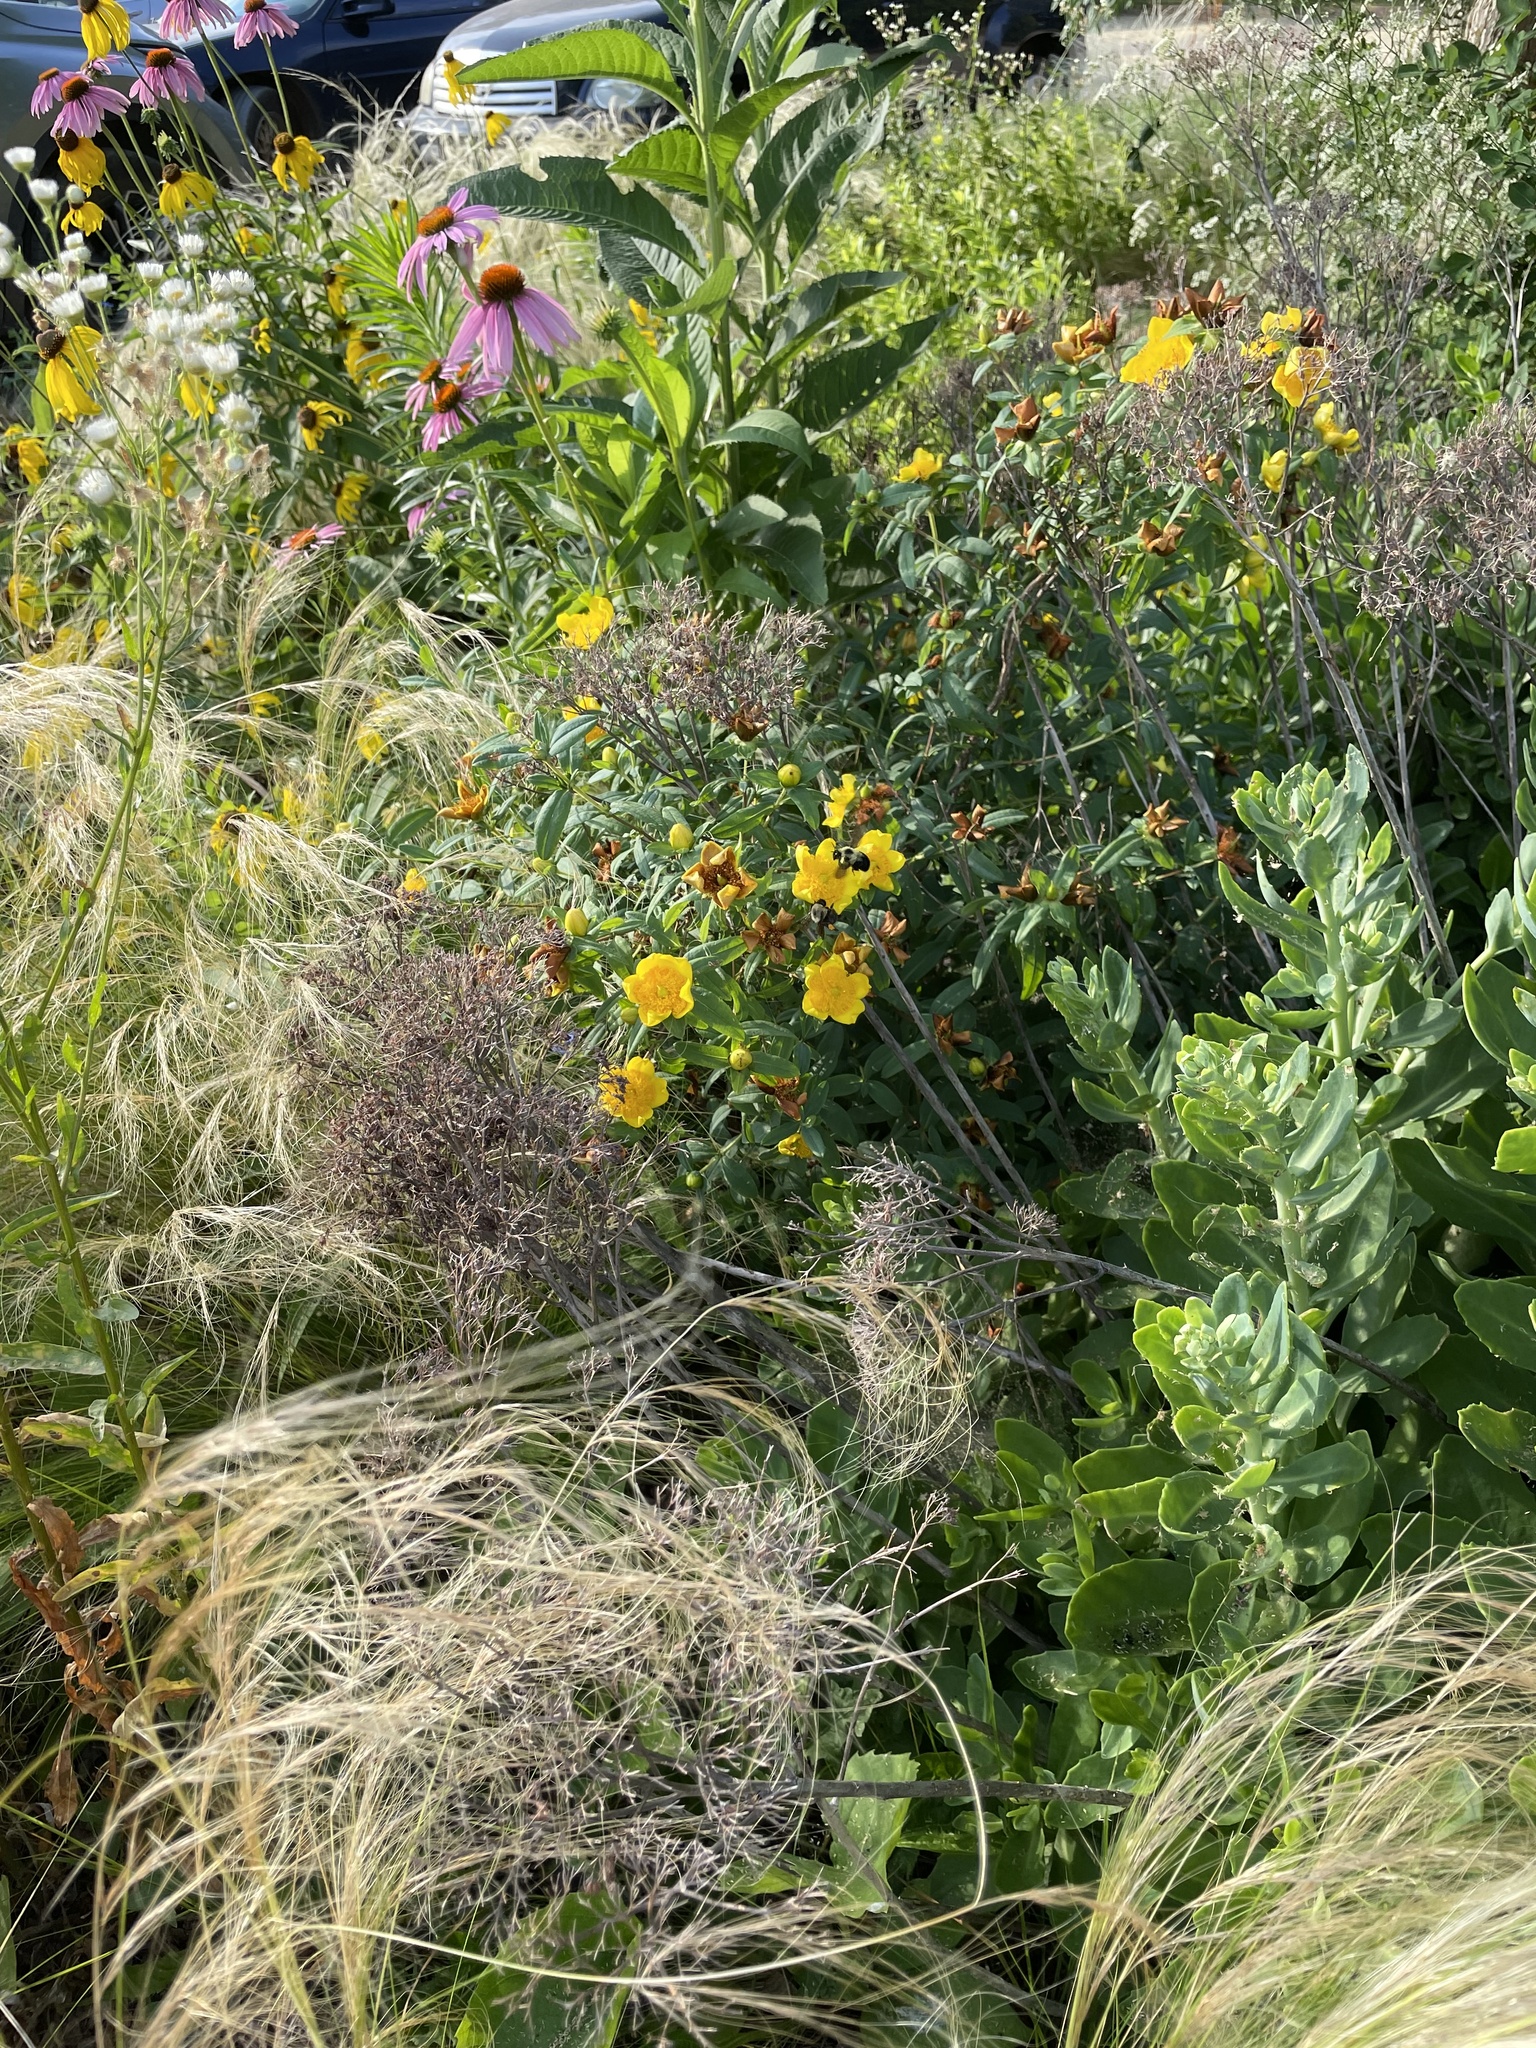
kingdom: Animalia
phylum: Arthropoda
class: Insecta
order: Hymenoptera
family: Apidae
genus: Bombus
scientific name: Bombus bimaculatus
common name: Two-spotted bumble bee
